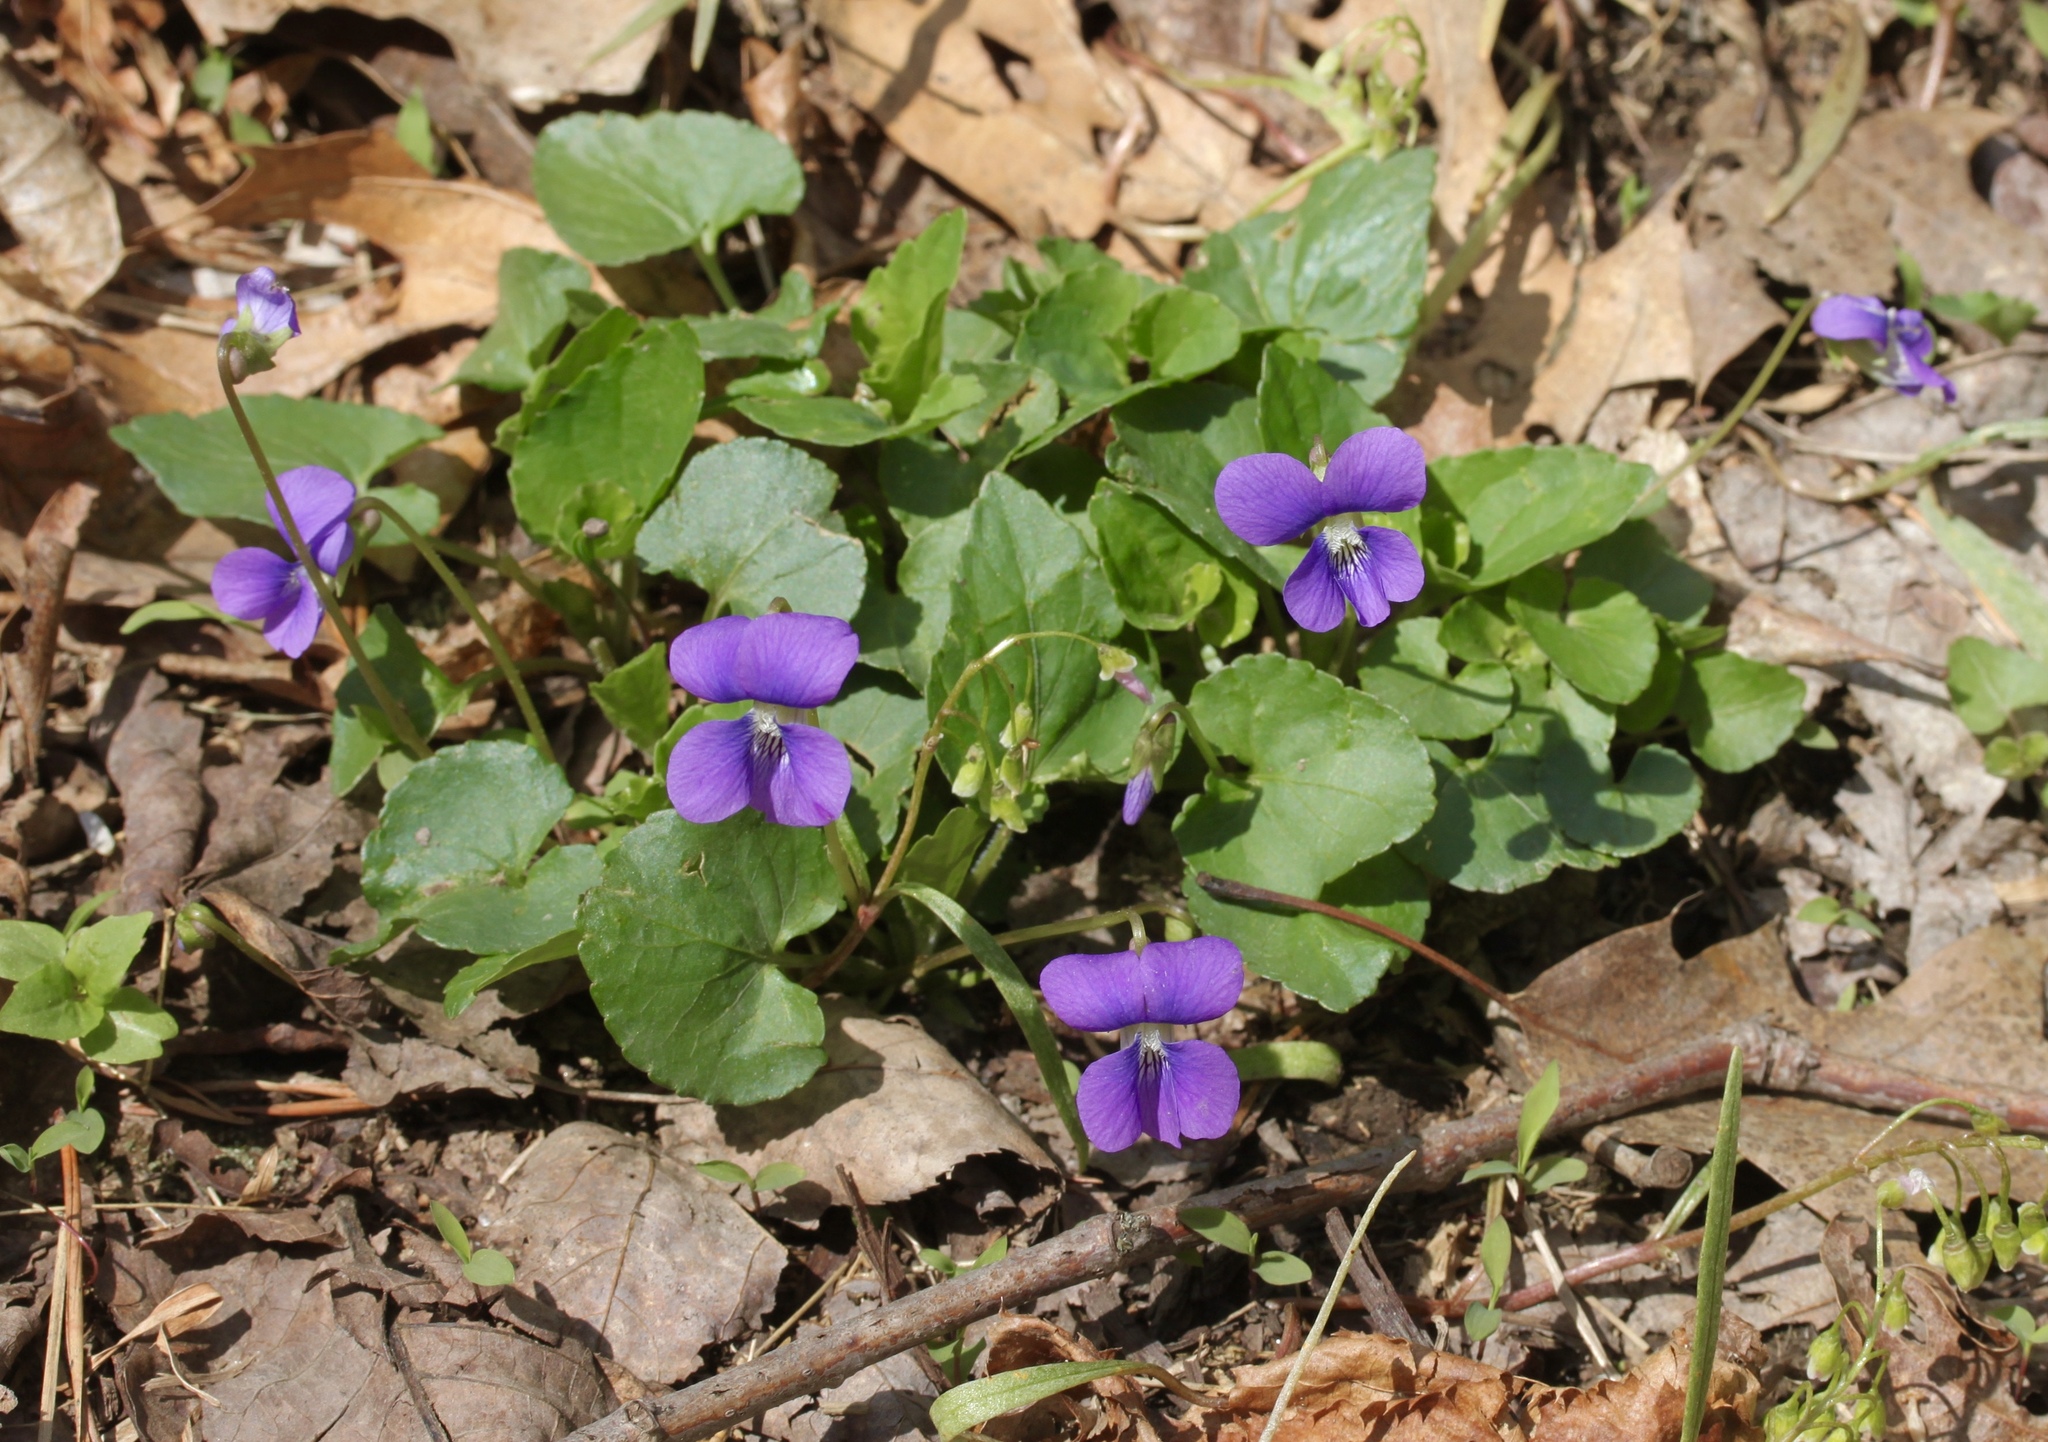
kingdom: Plantae
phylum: Tracheophyta
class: Magnoliopsida
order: Malpighiales
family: Violaceae
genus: Viola
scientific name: Viola sororia
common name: Dooryard violet
